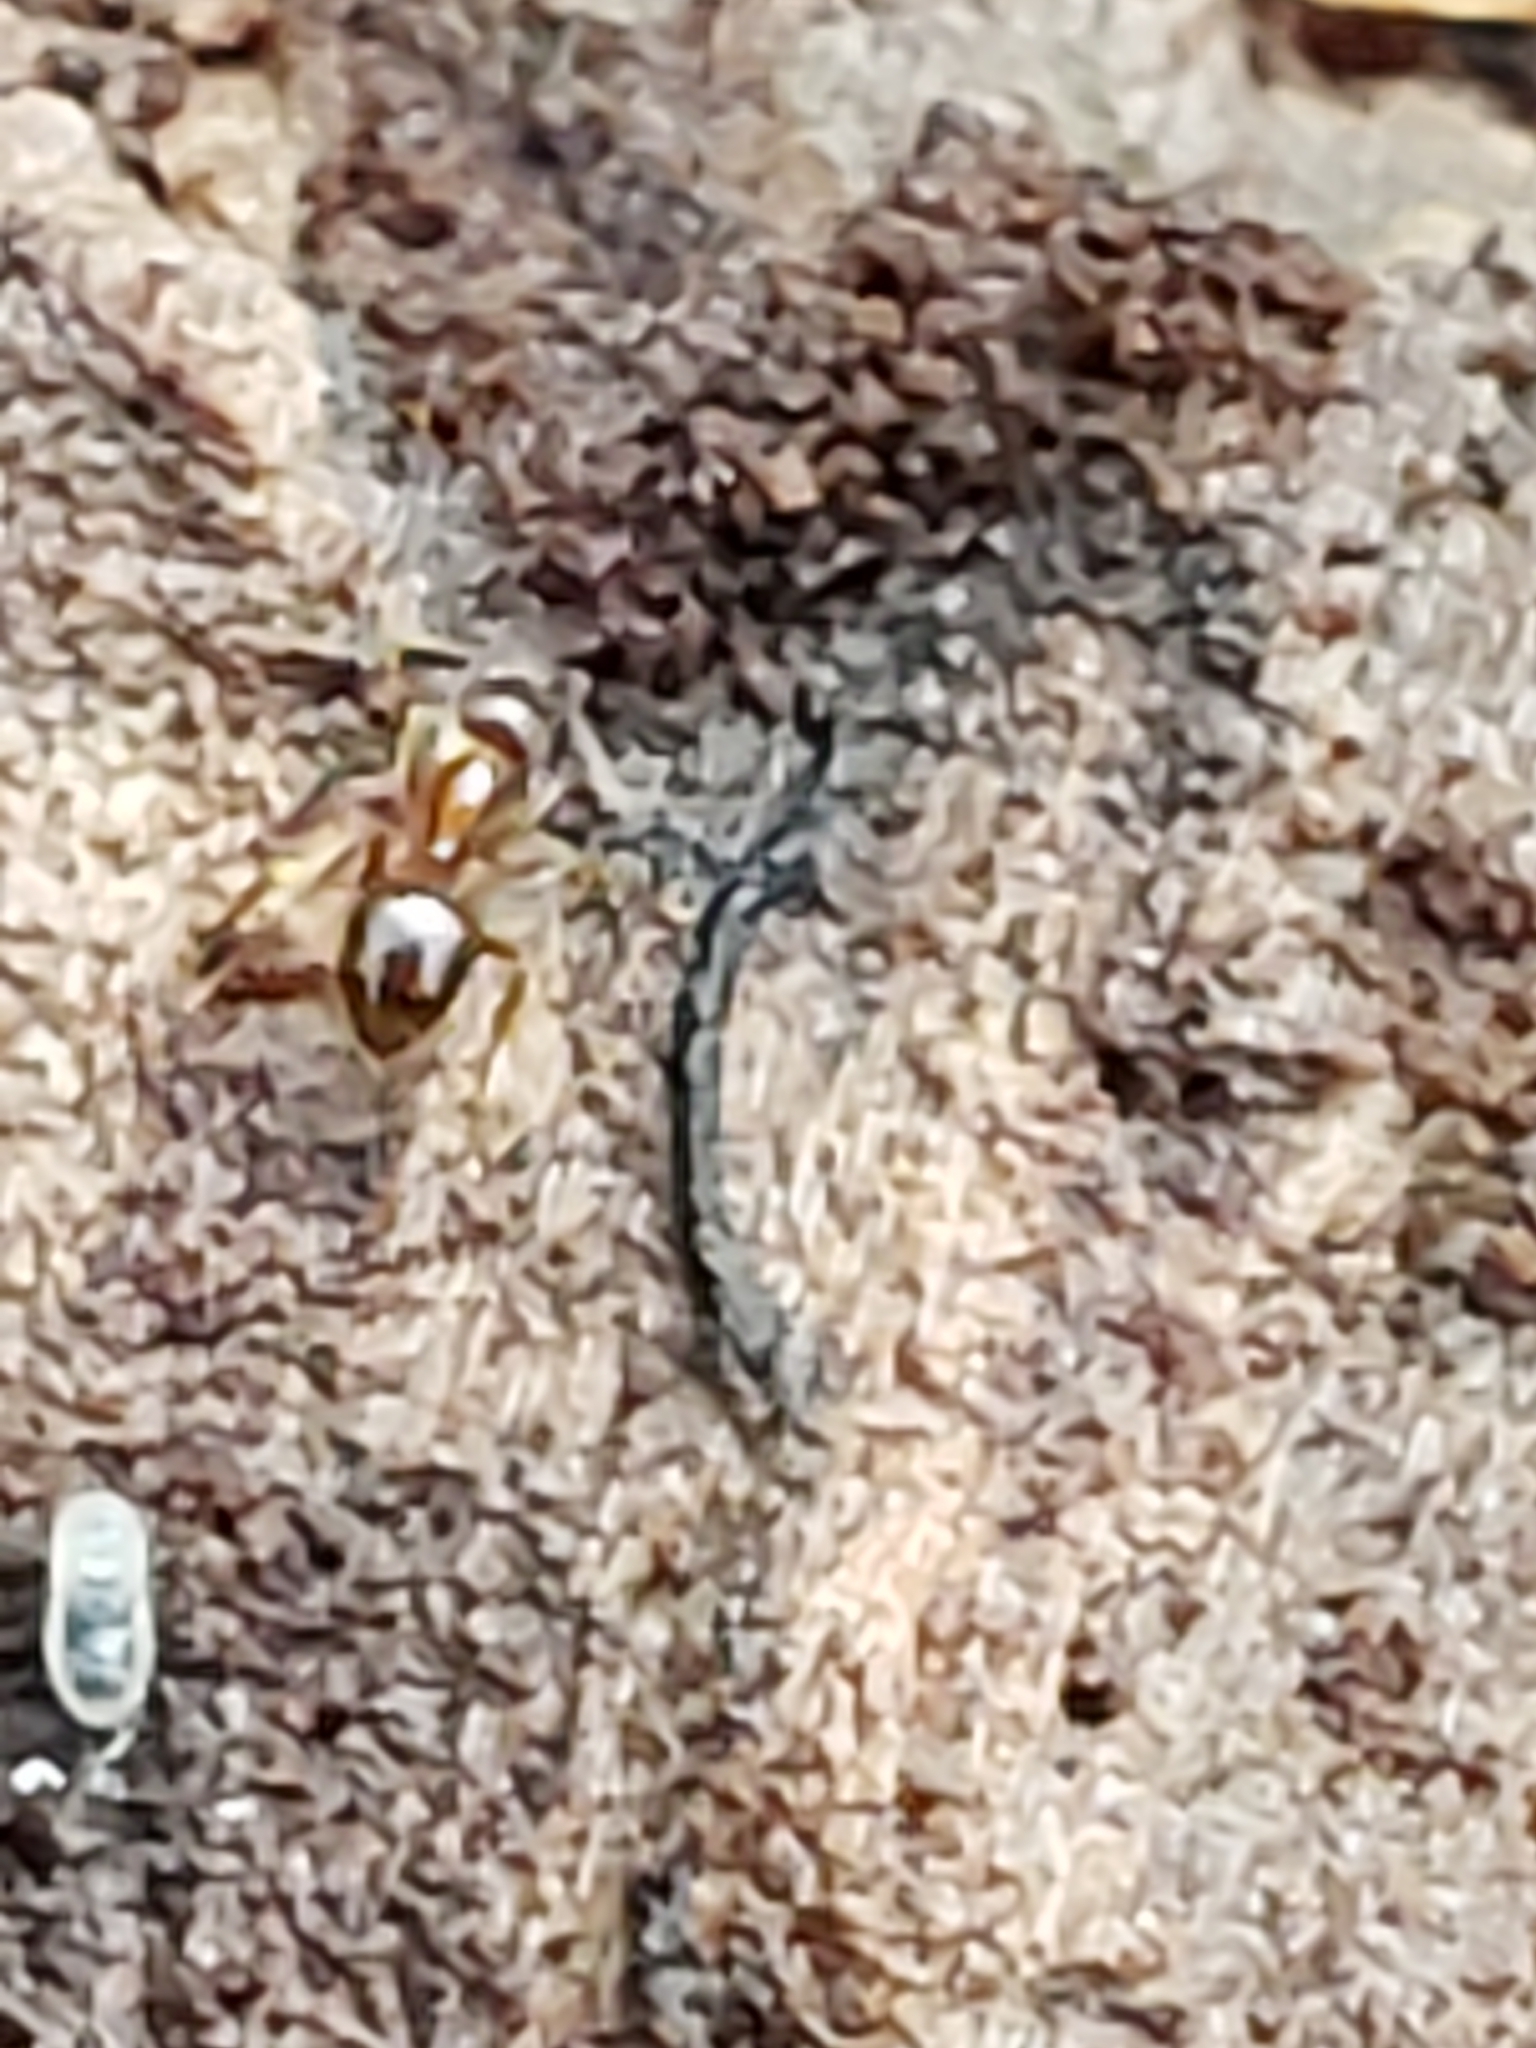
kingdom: Animalia
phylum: Arthropoda
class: Insecta
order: Hymenoptera
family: Formicidae
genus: Paratrechina
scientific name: Paratrechina flavipes
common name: Eastern asian formicine ant
